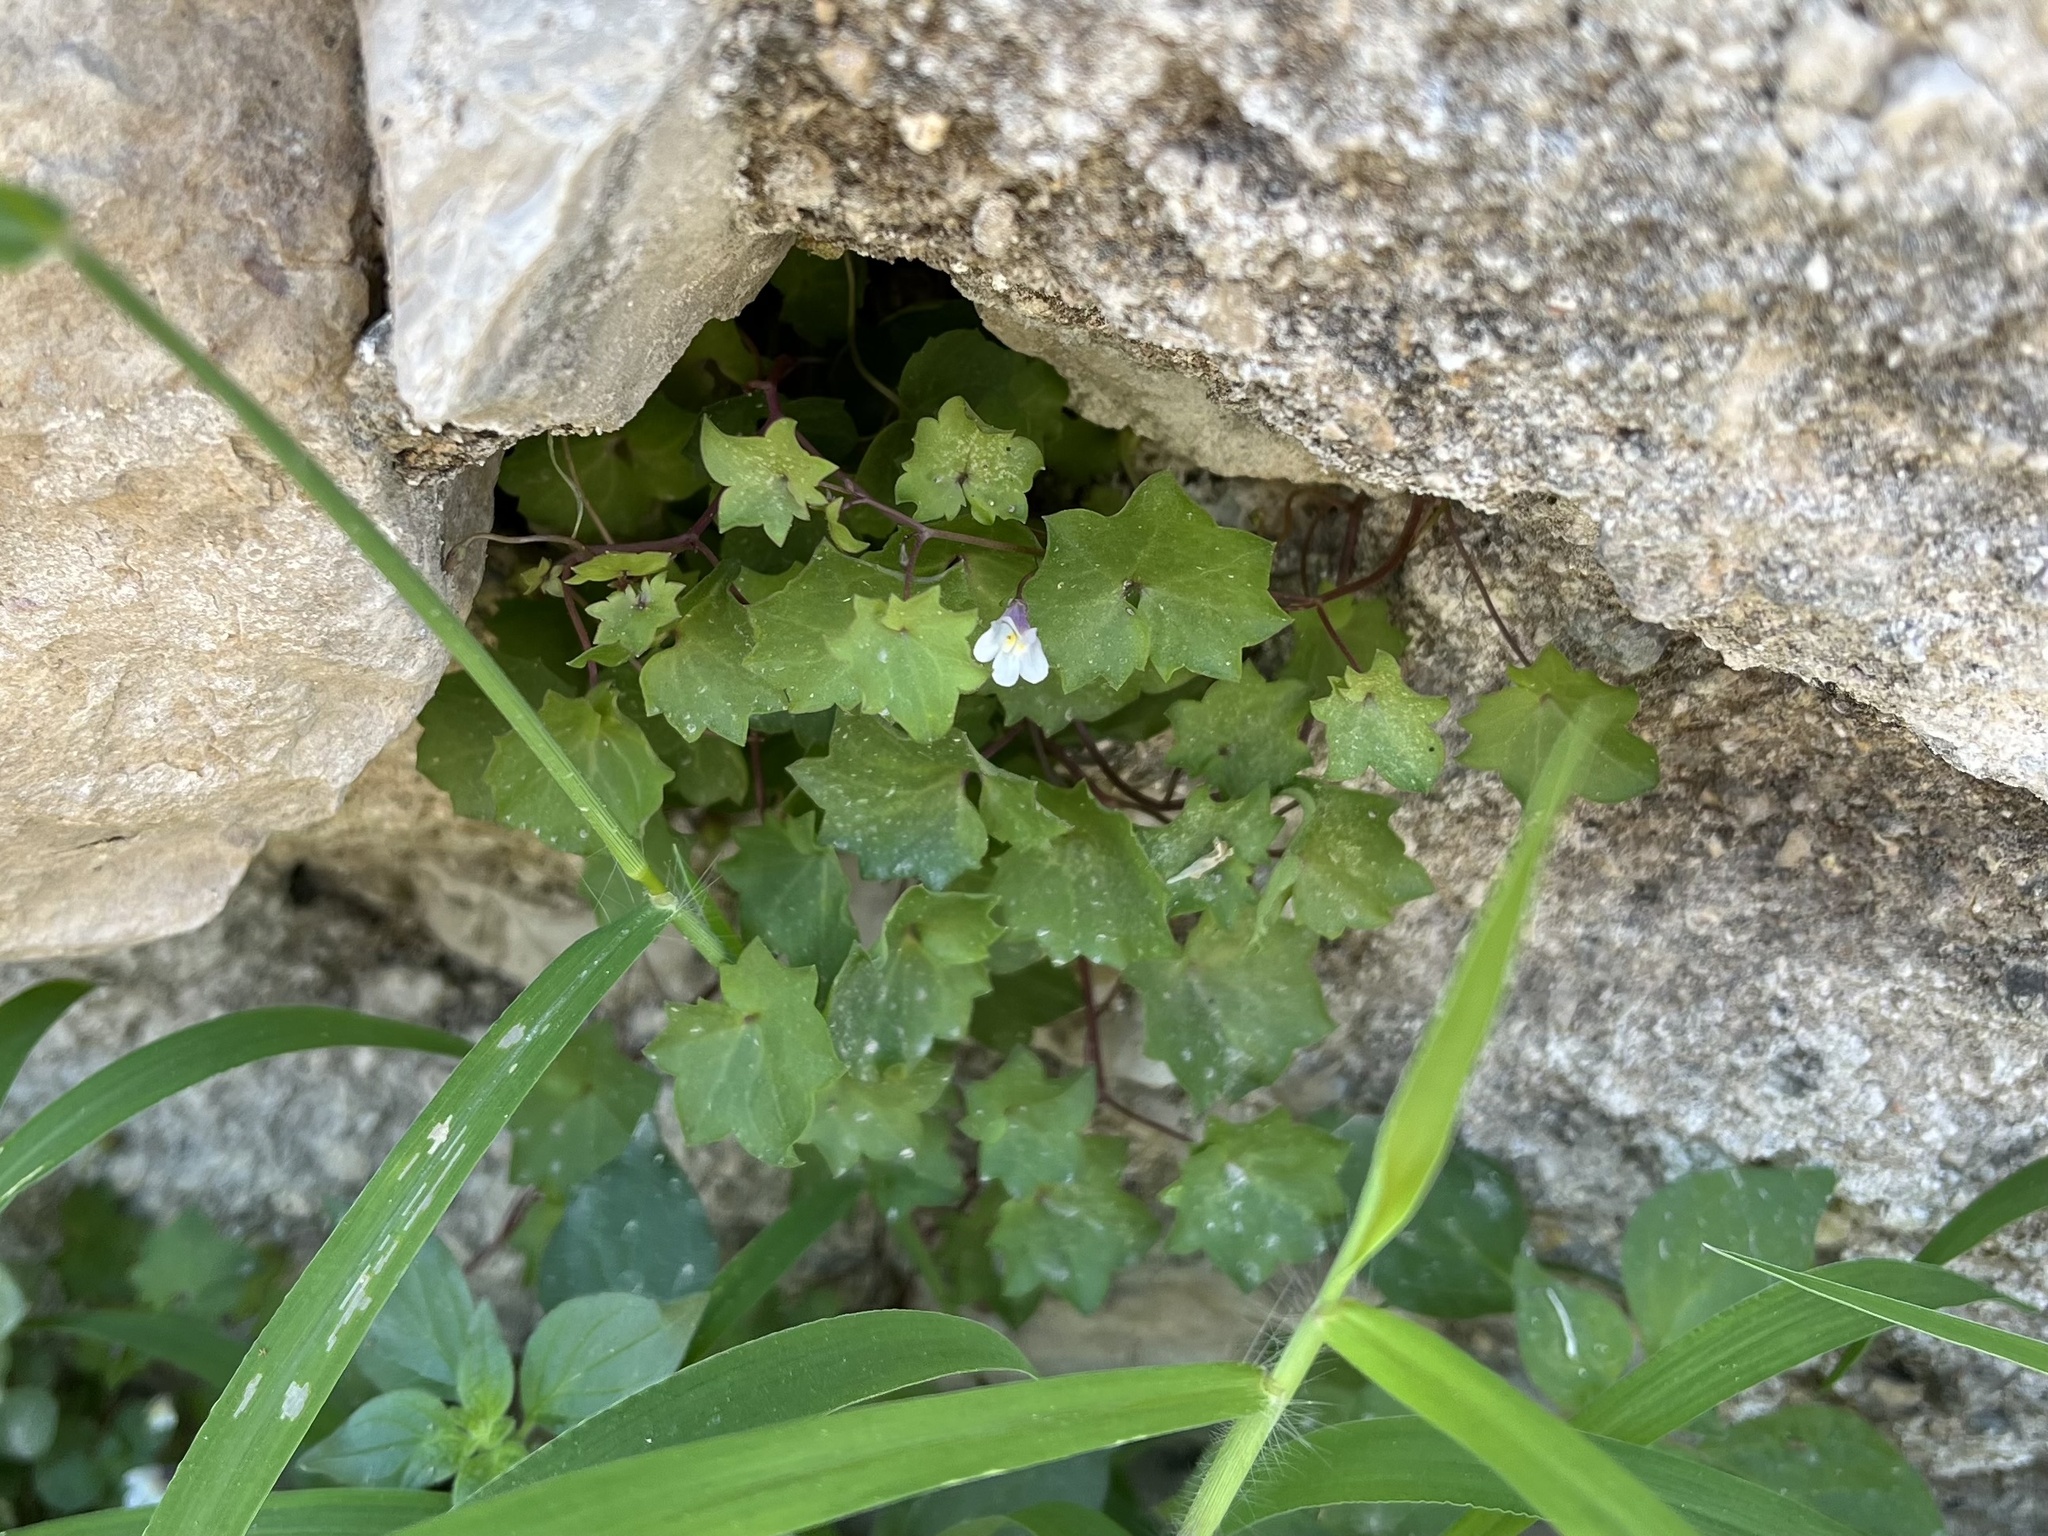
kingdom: Plantae
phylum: Tracheophyta
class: Magnoliopsida
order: Lamiales
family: Plantaginaceae
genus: Cymbalaria
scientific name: Cymbalaria muralis
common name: Ivy-leaved toadflax
